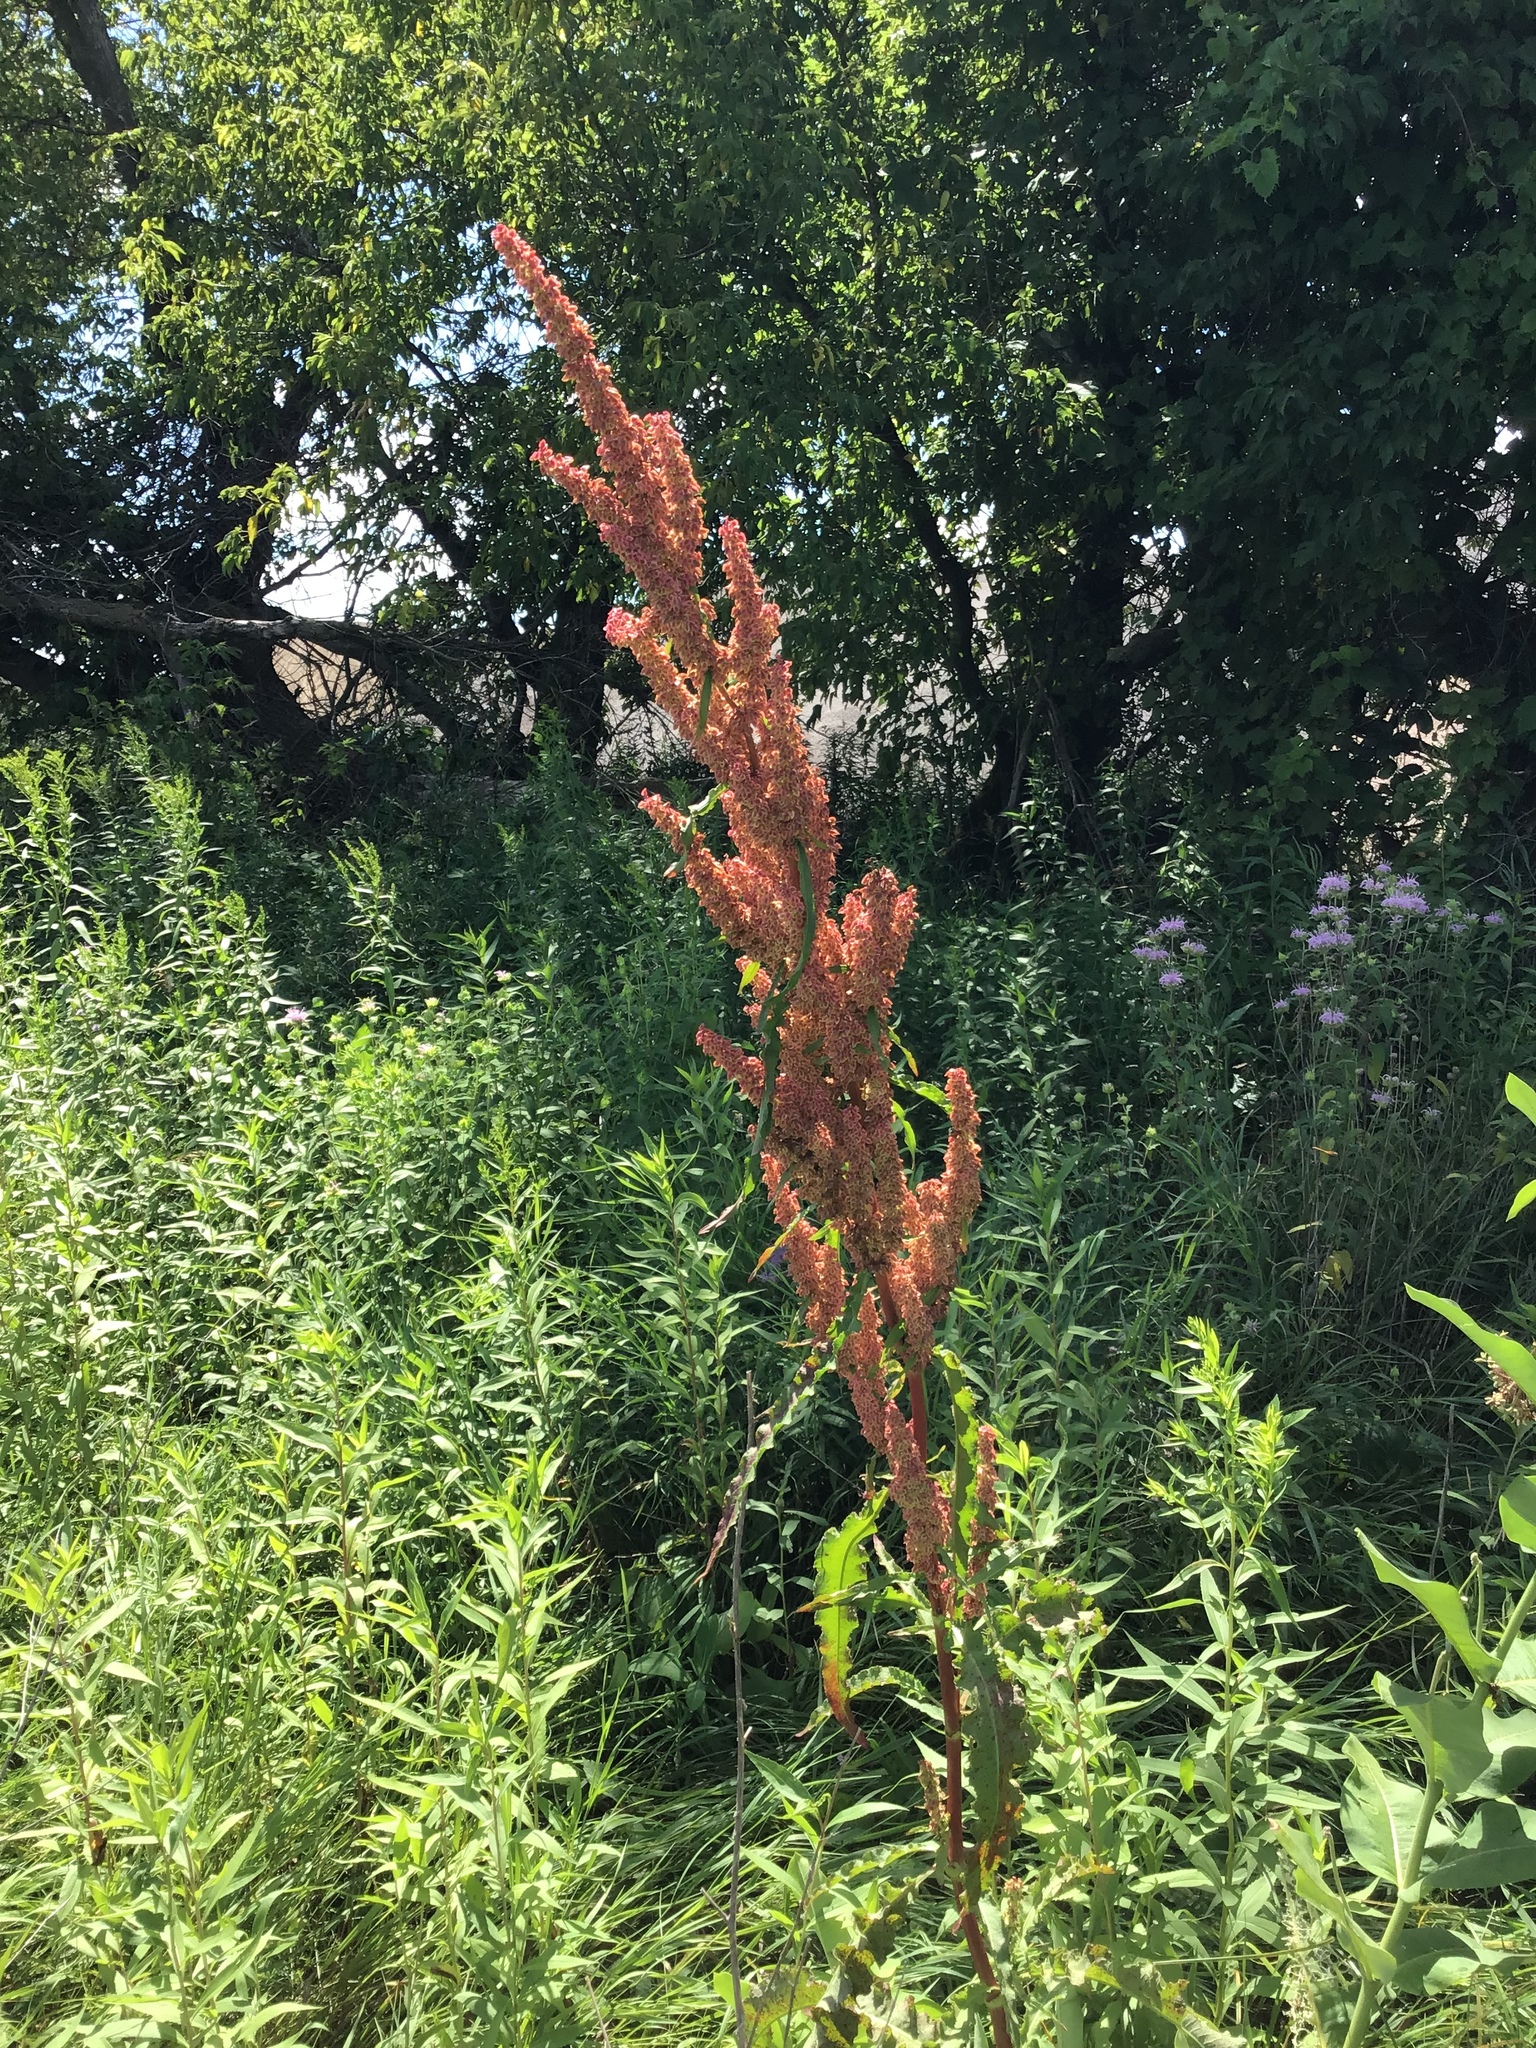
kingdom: Plantae
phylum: Tracheophyta
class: Magnoliopsida
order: Caryophyllales
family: Polygonaceae
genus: Rumex
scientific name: Rumex crispus
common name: Curled dock
